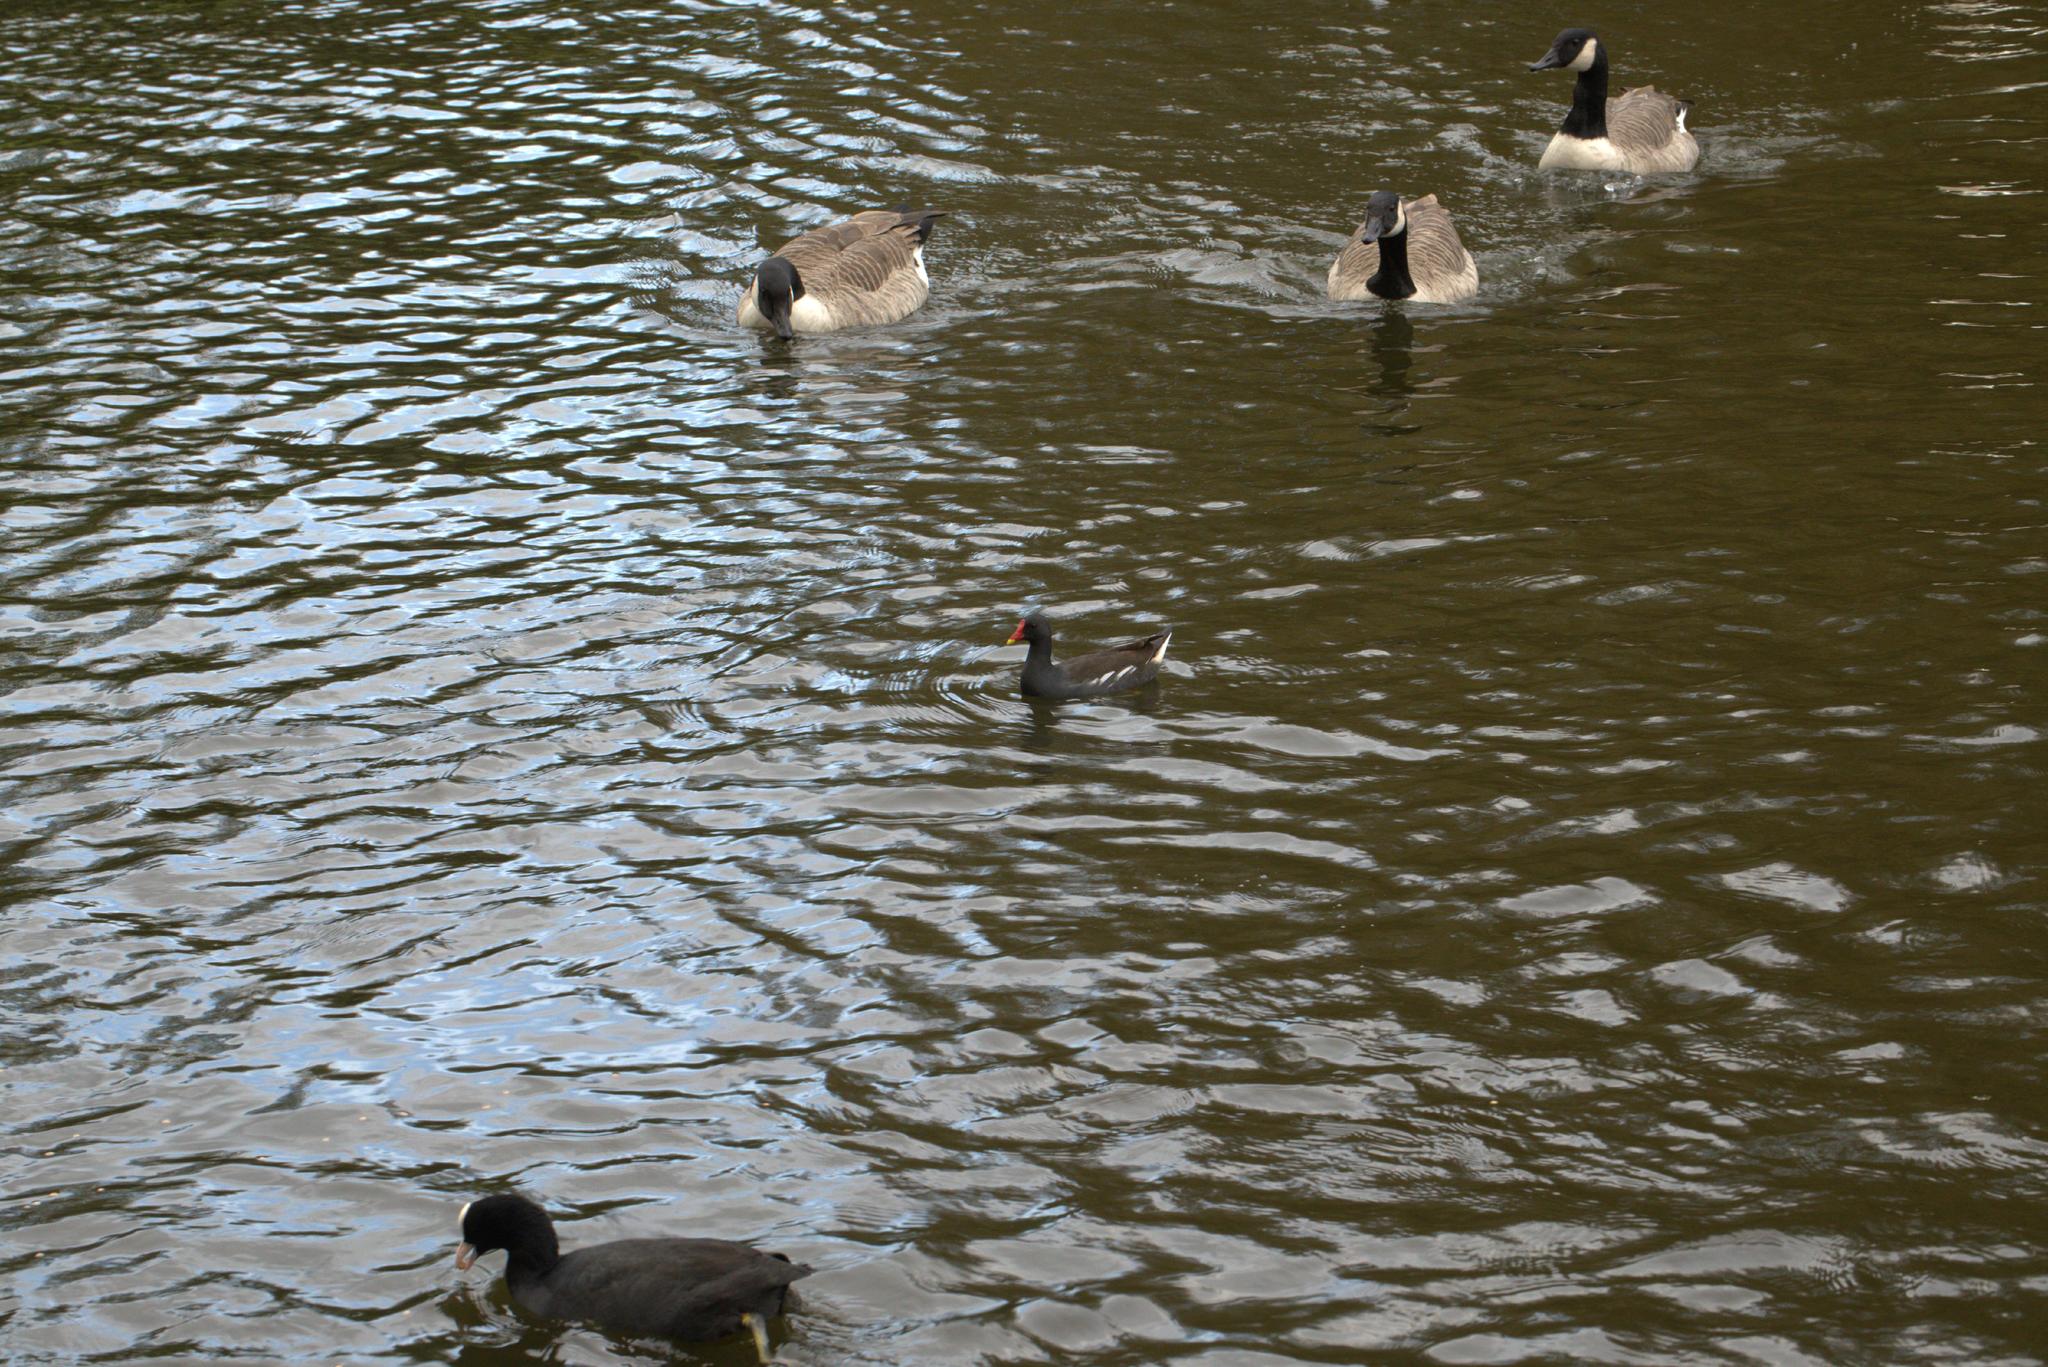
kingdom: Animalia
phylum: Chordata
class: Aves
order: Gruiformes
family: Rallidae
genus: Gallinula
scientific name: Gallinula chloropus
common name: Common moorhen
